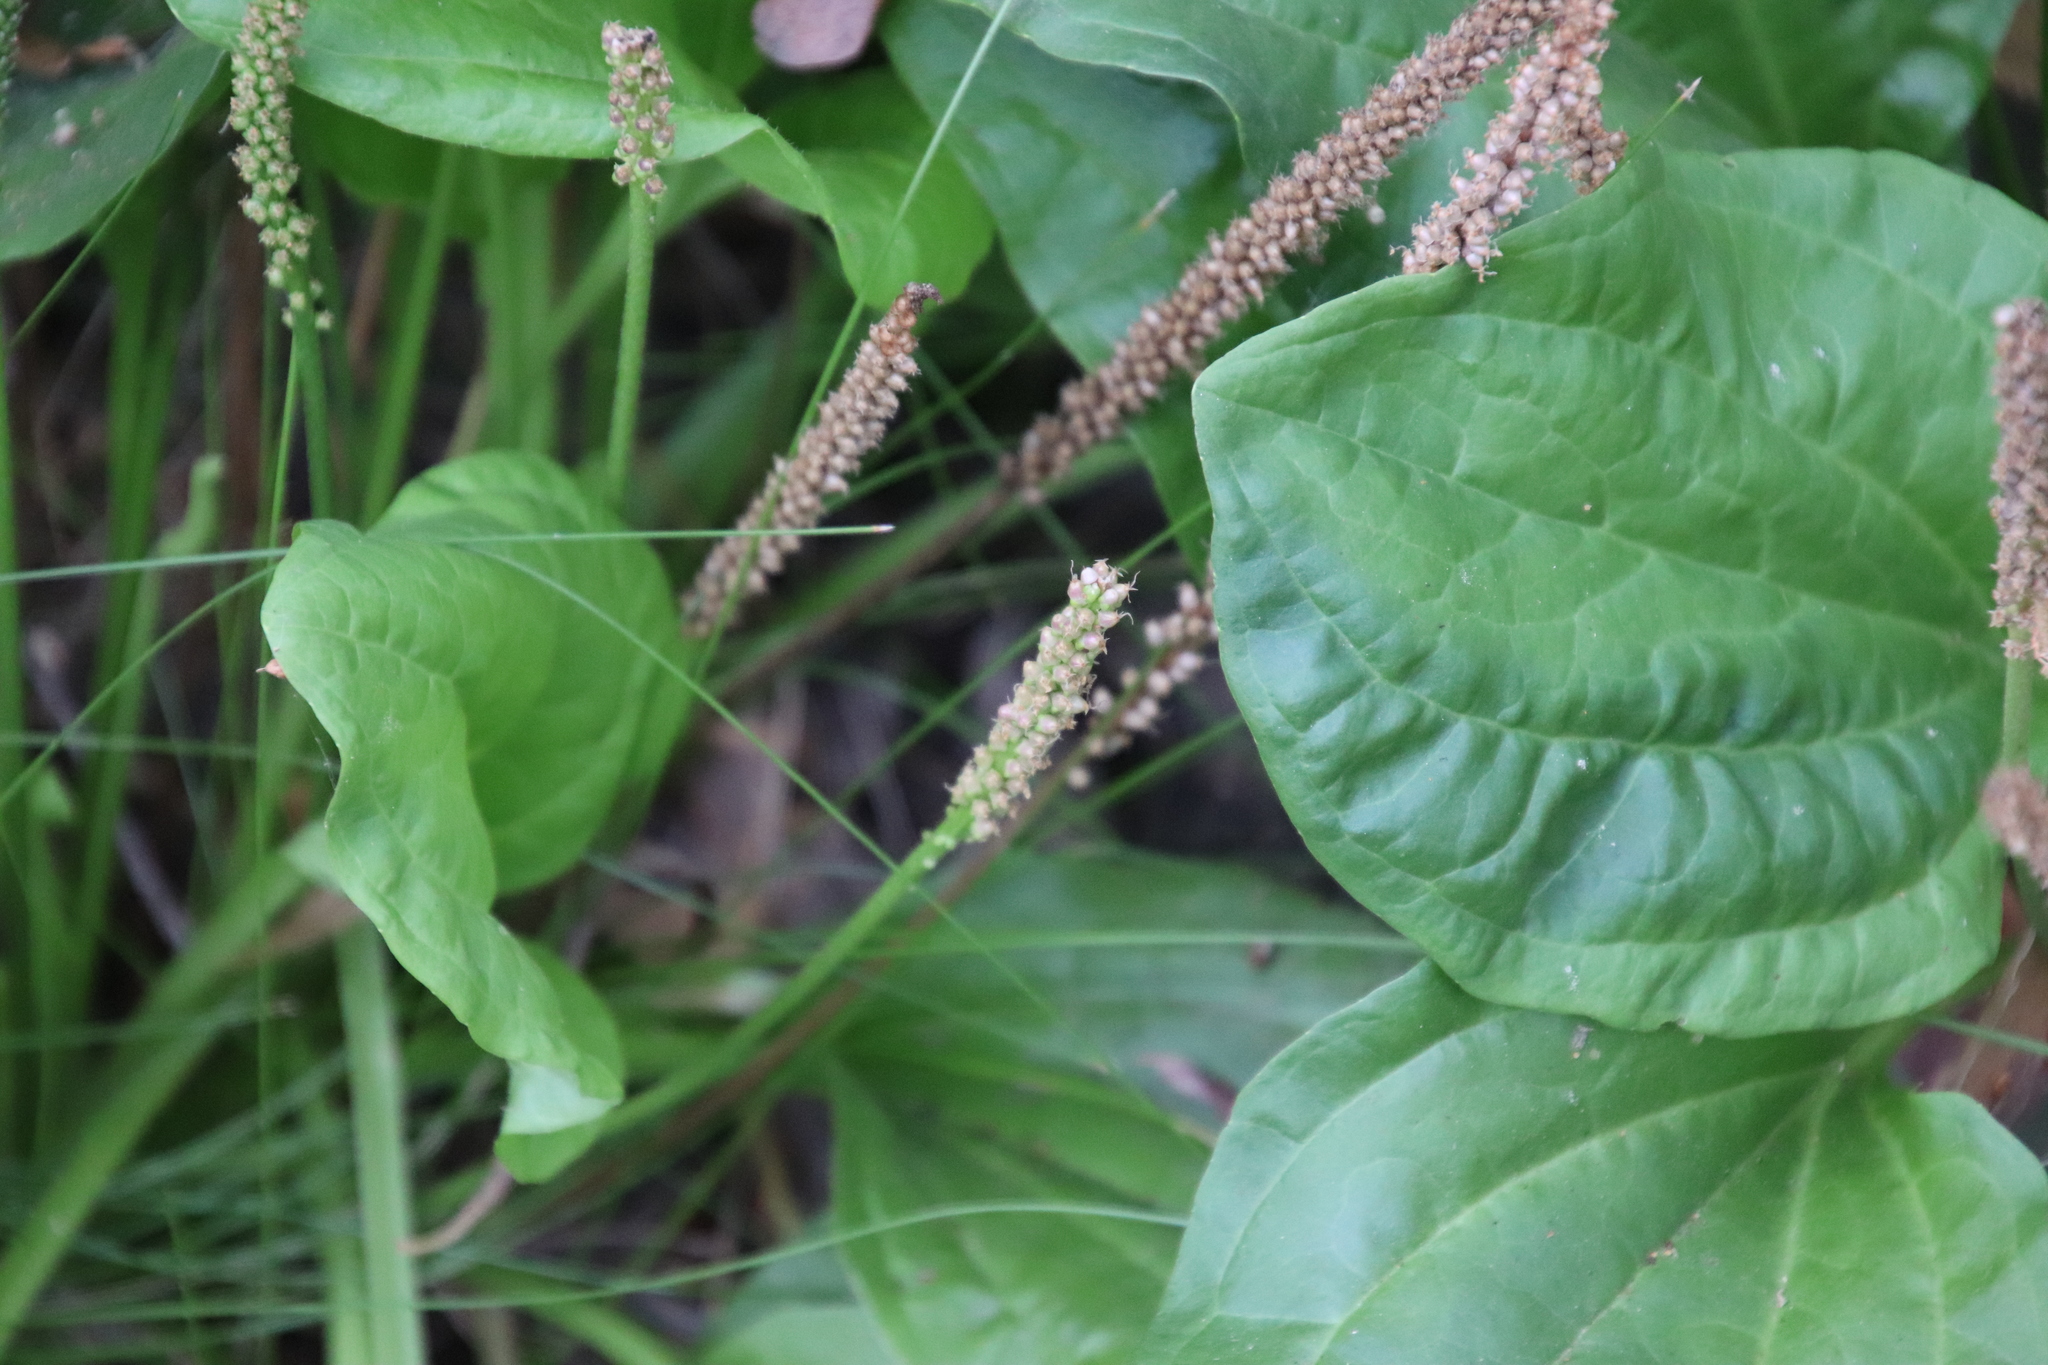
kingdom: Plantae
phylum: Tracheophyta
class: Magnoliopsida
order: Lamiales
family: Plantaginaceae
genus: Plantago
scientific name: Plantago major
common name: Common plantain
